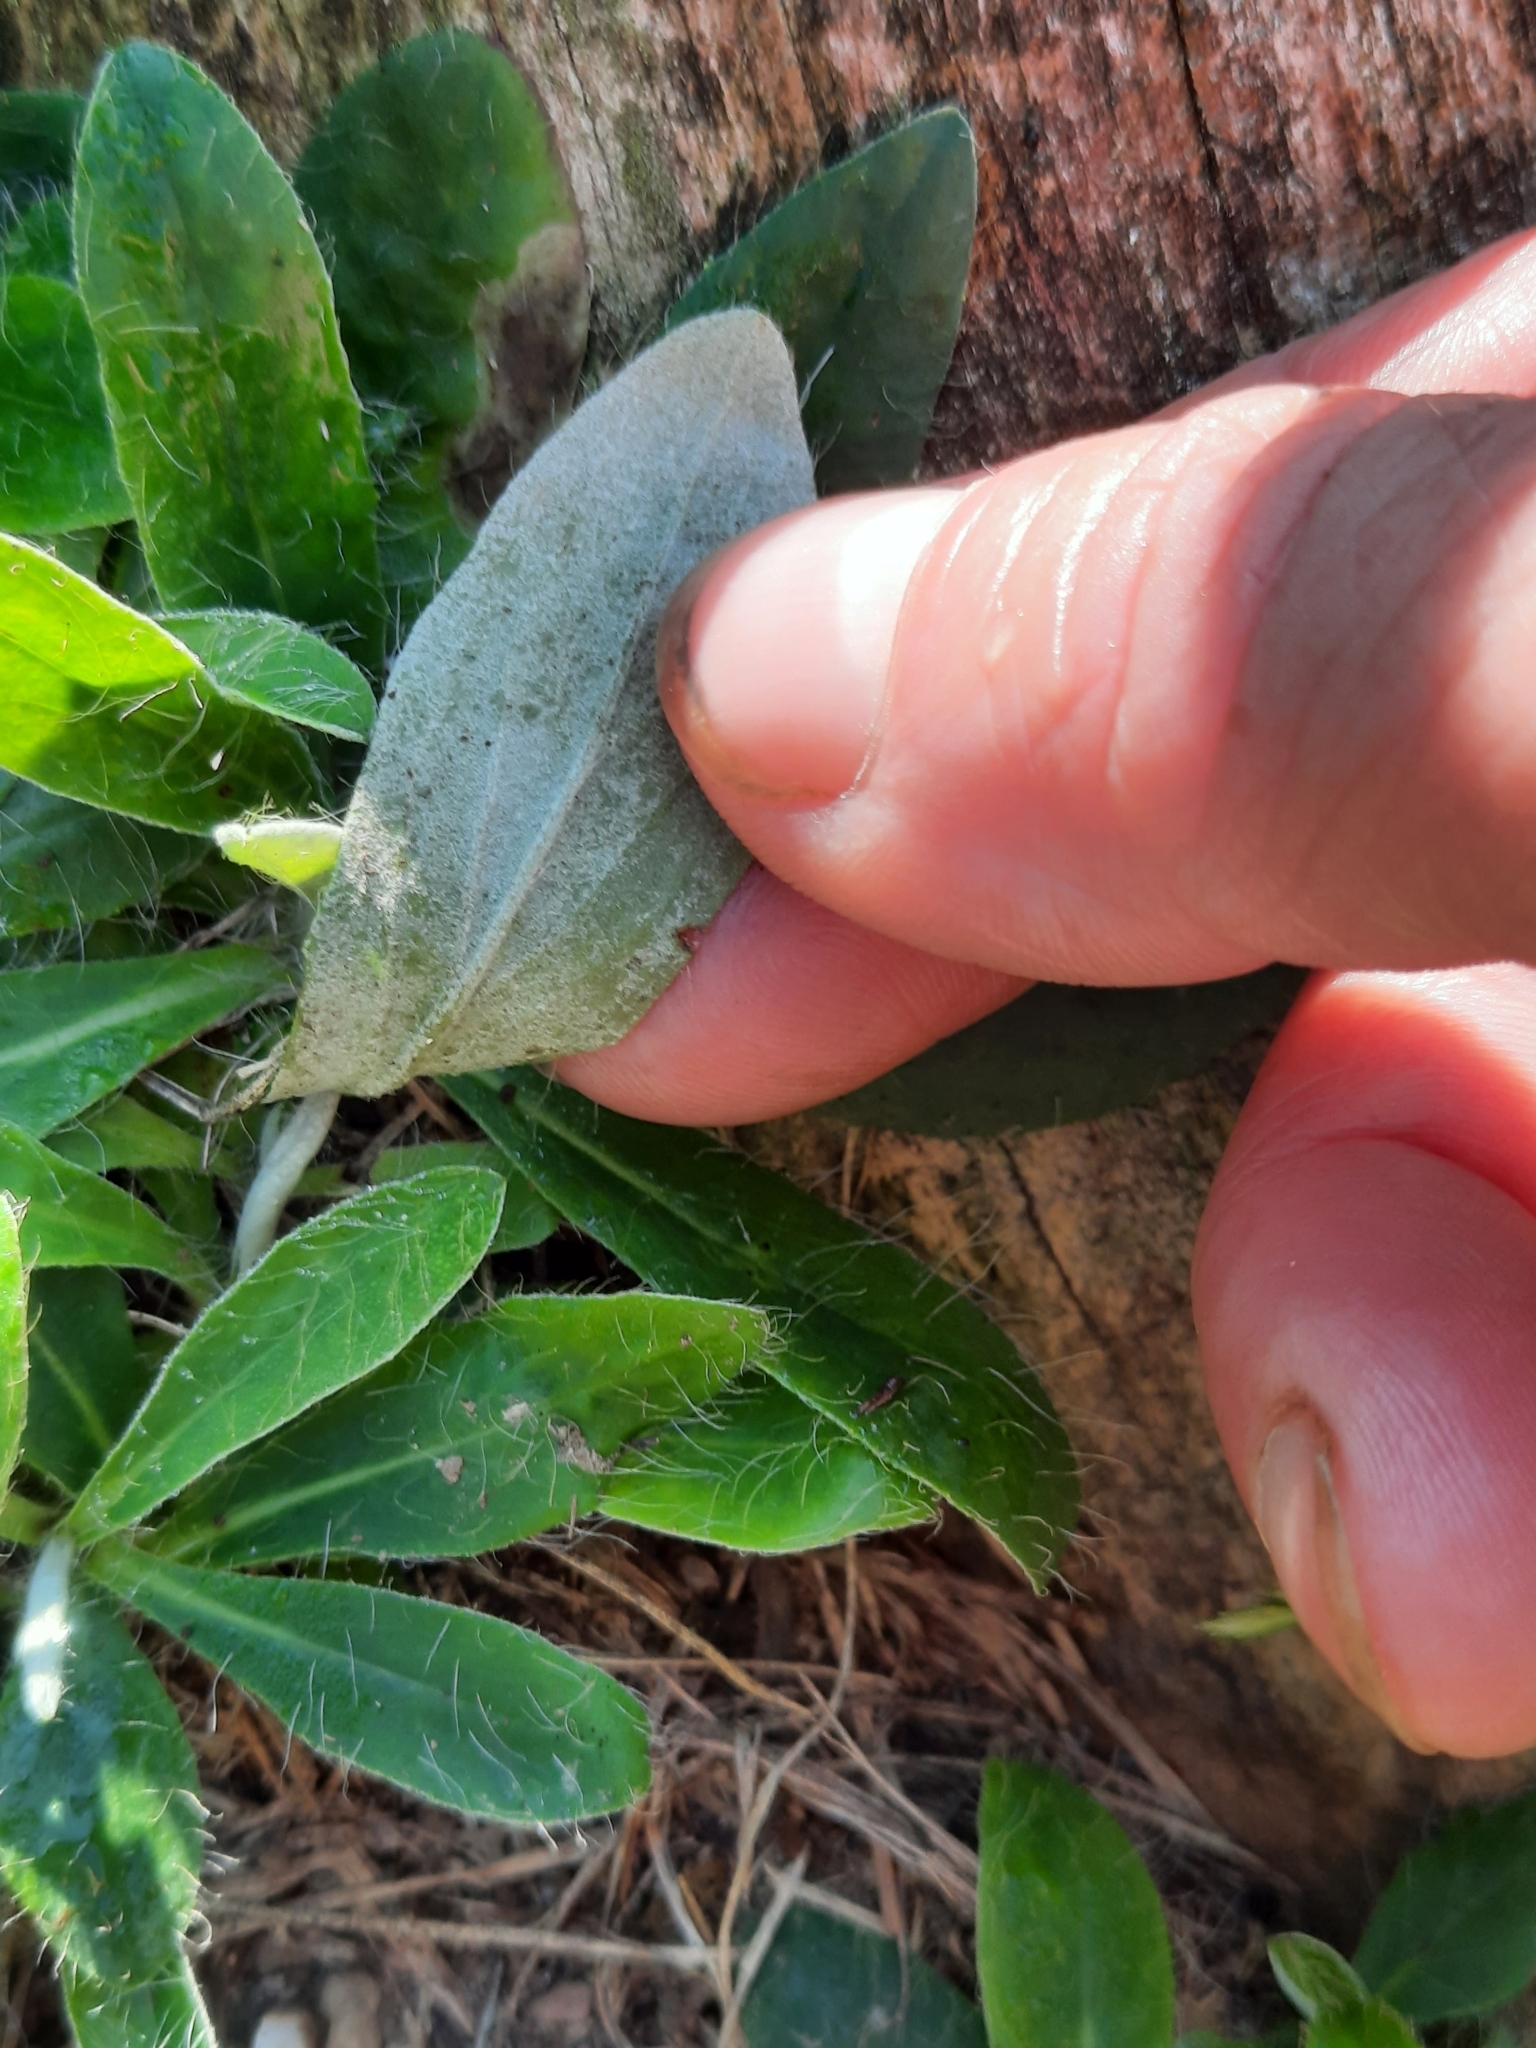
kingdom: Plantae
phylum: Tracheophyta
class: Magnoliopsida
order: Asterales
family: Asteraceae
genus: Pilosella
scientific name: Pilosella officinarum
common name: Mouse-ear hawkweed
